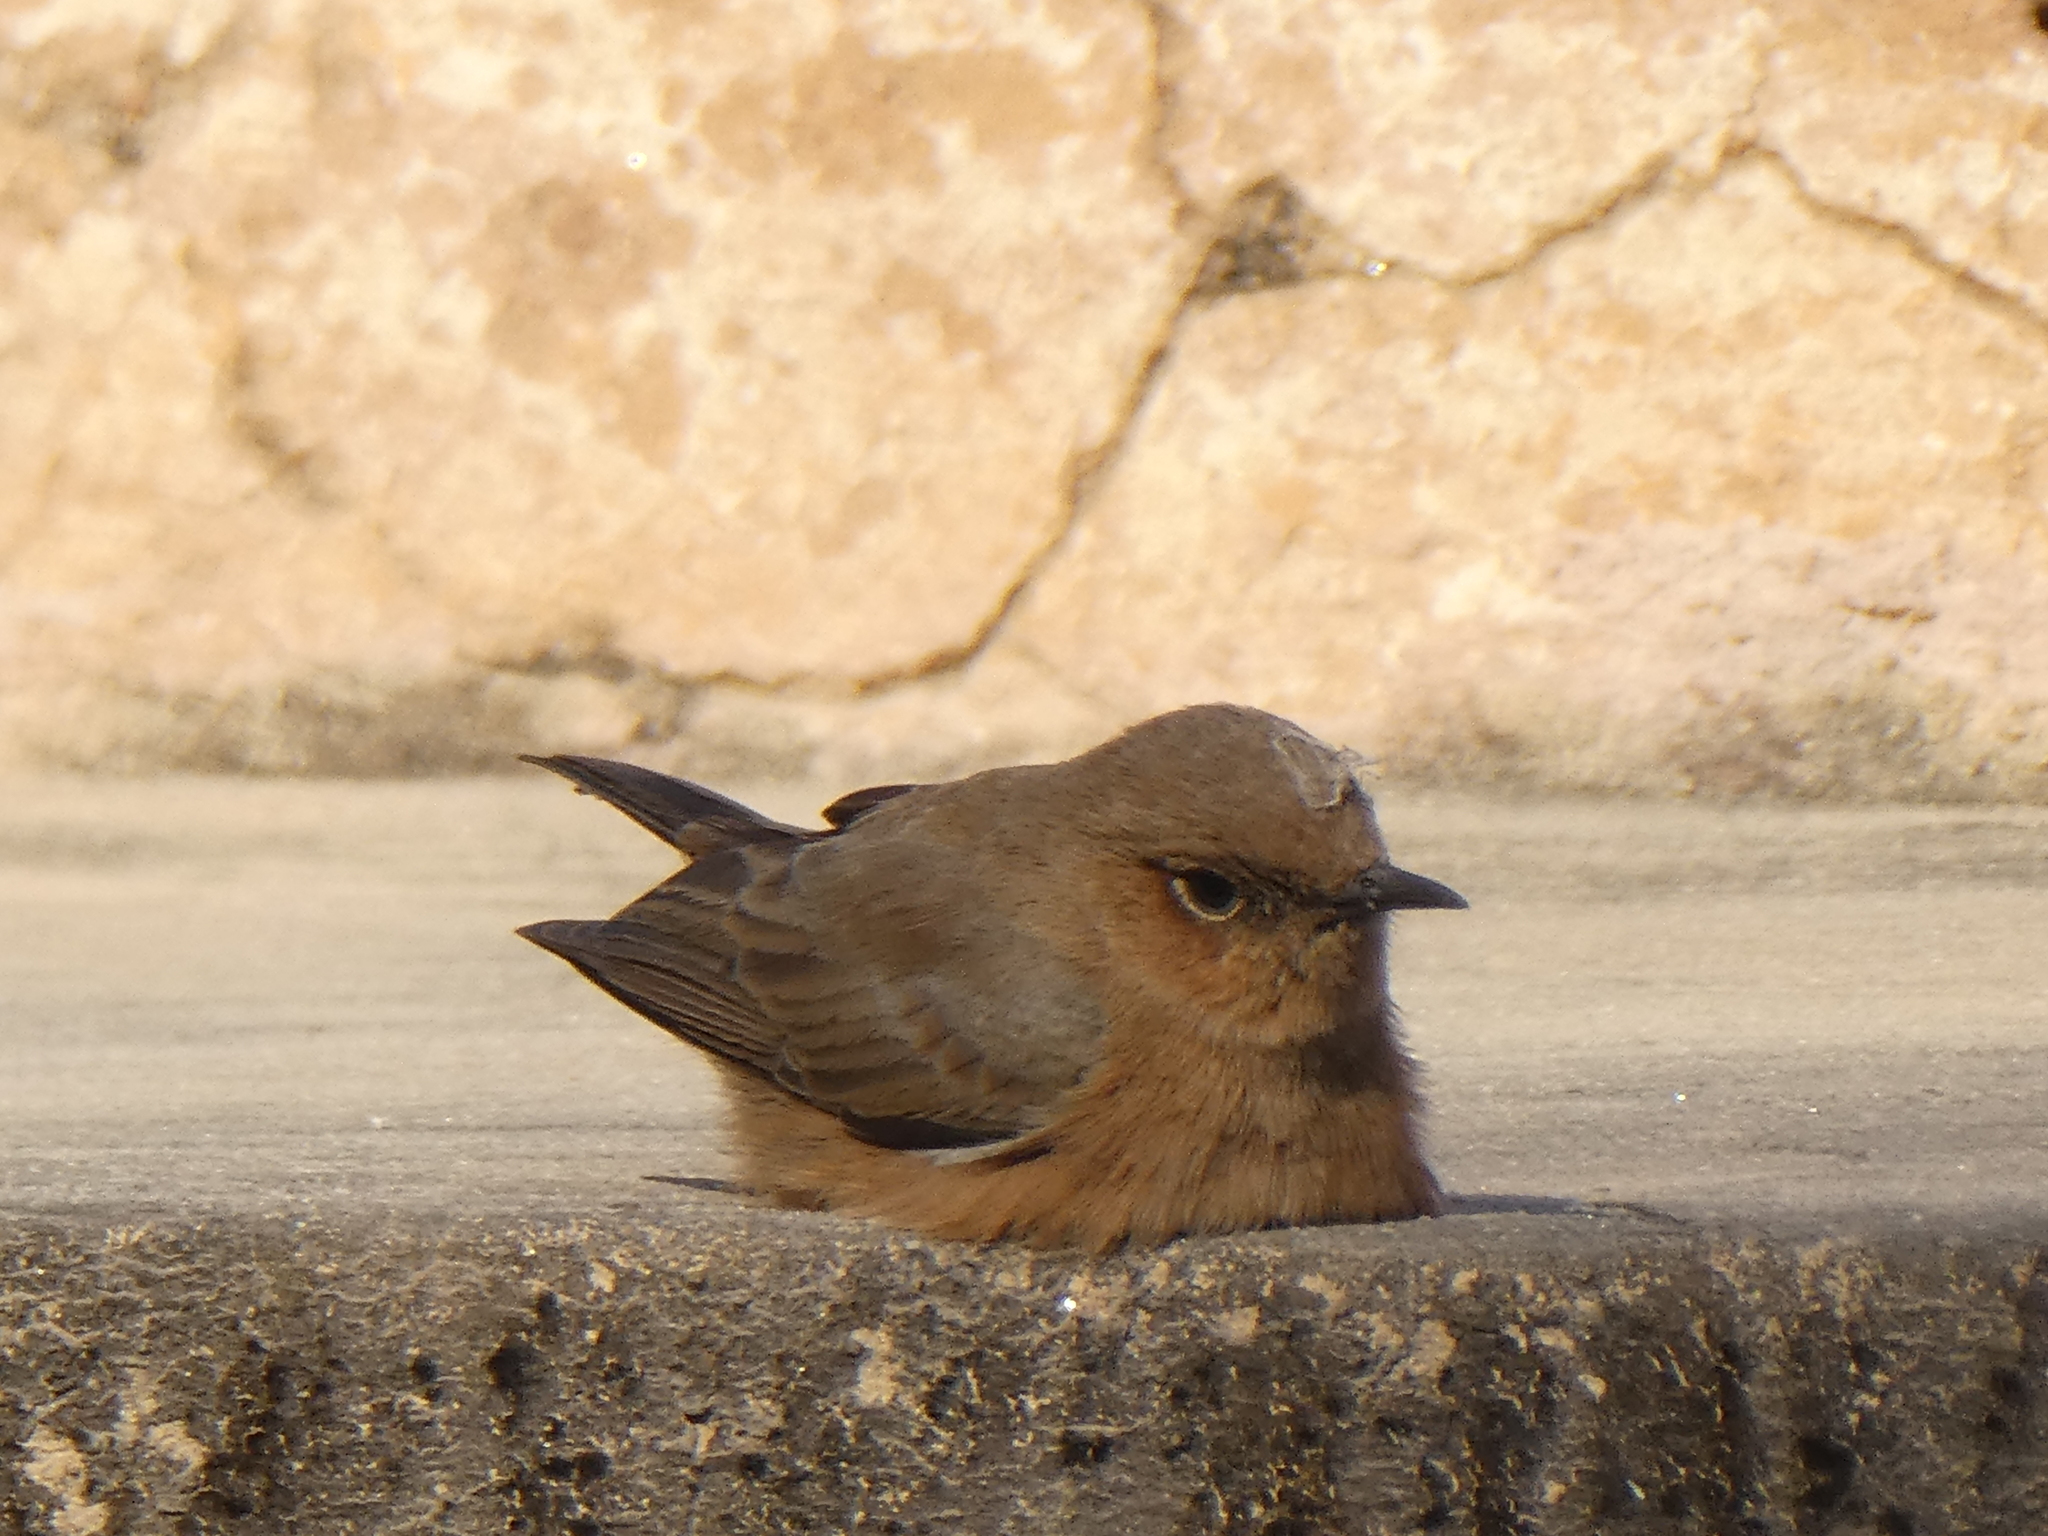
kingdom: Animalia
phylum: Chordata
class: Aves
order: Passeriformes
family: Muscicapidae
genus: Oenanthe
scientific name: Oenanthe fusca
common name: Brown rock chat
